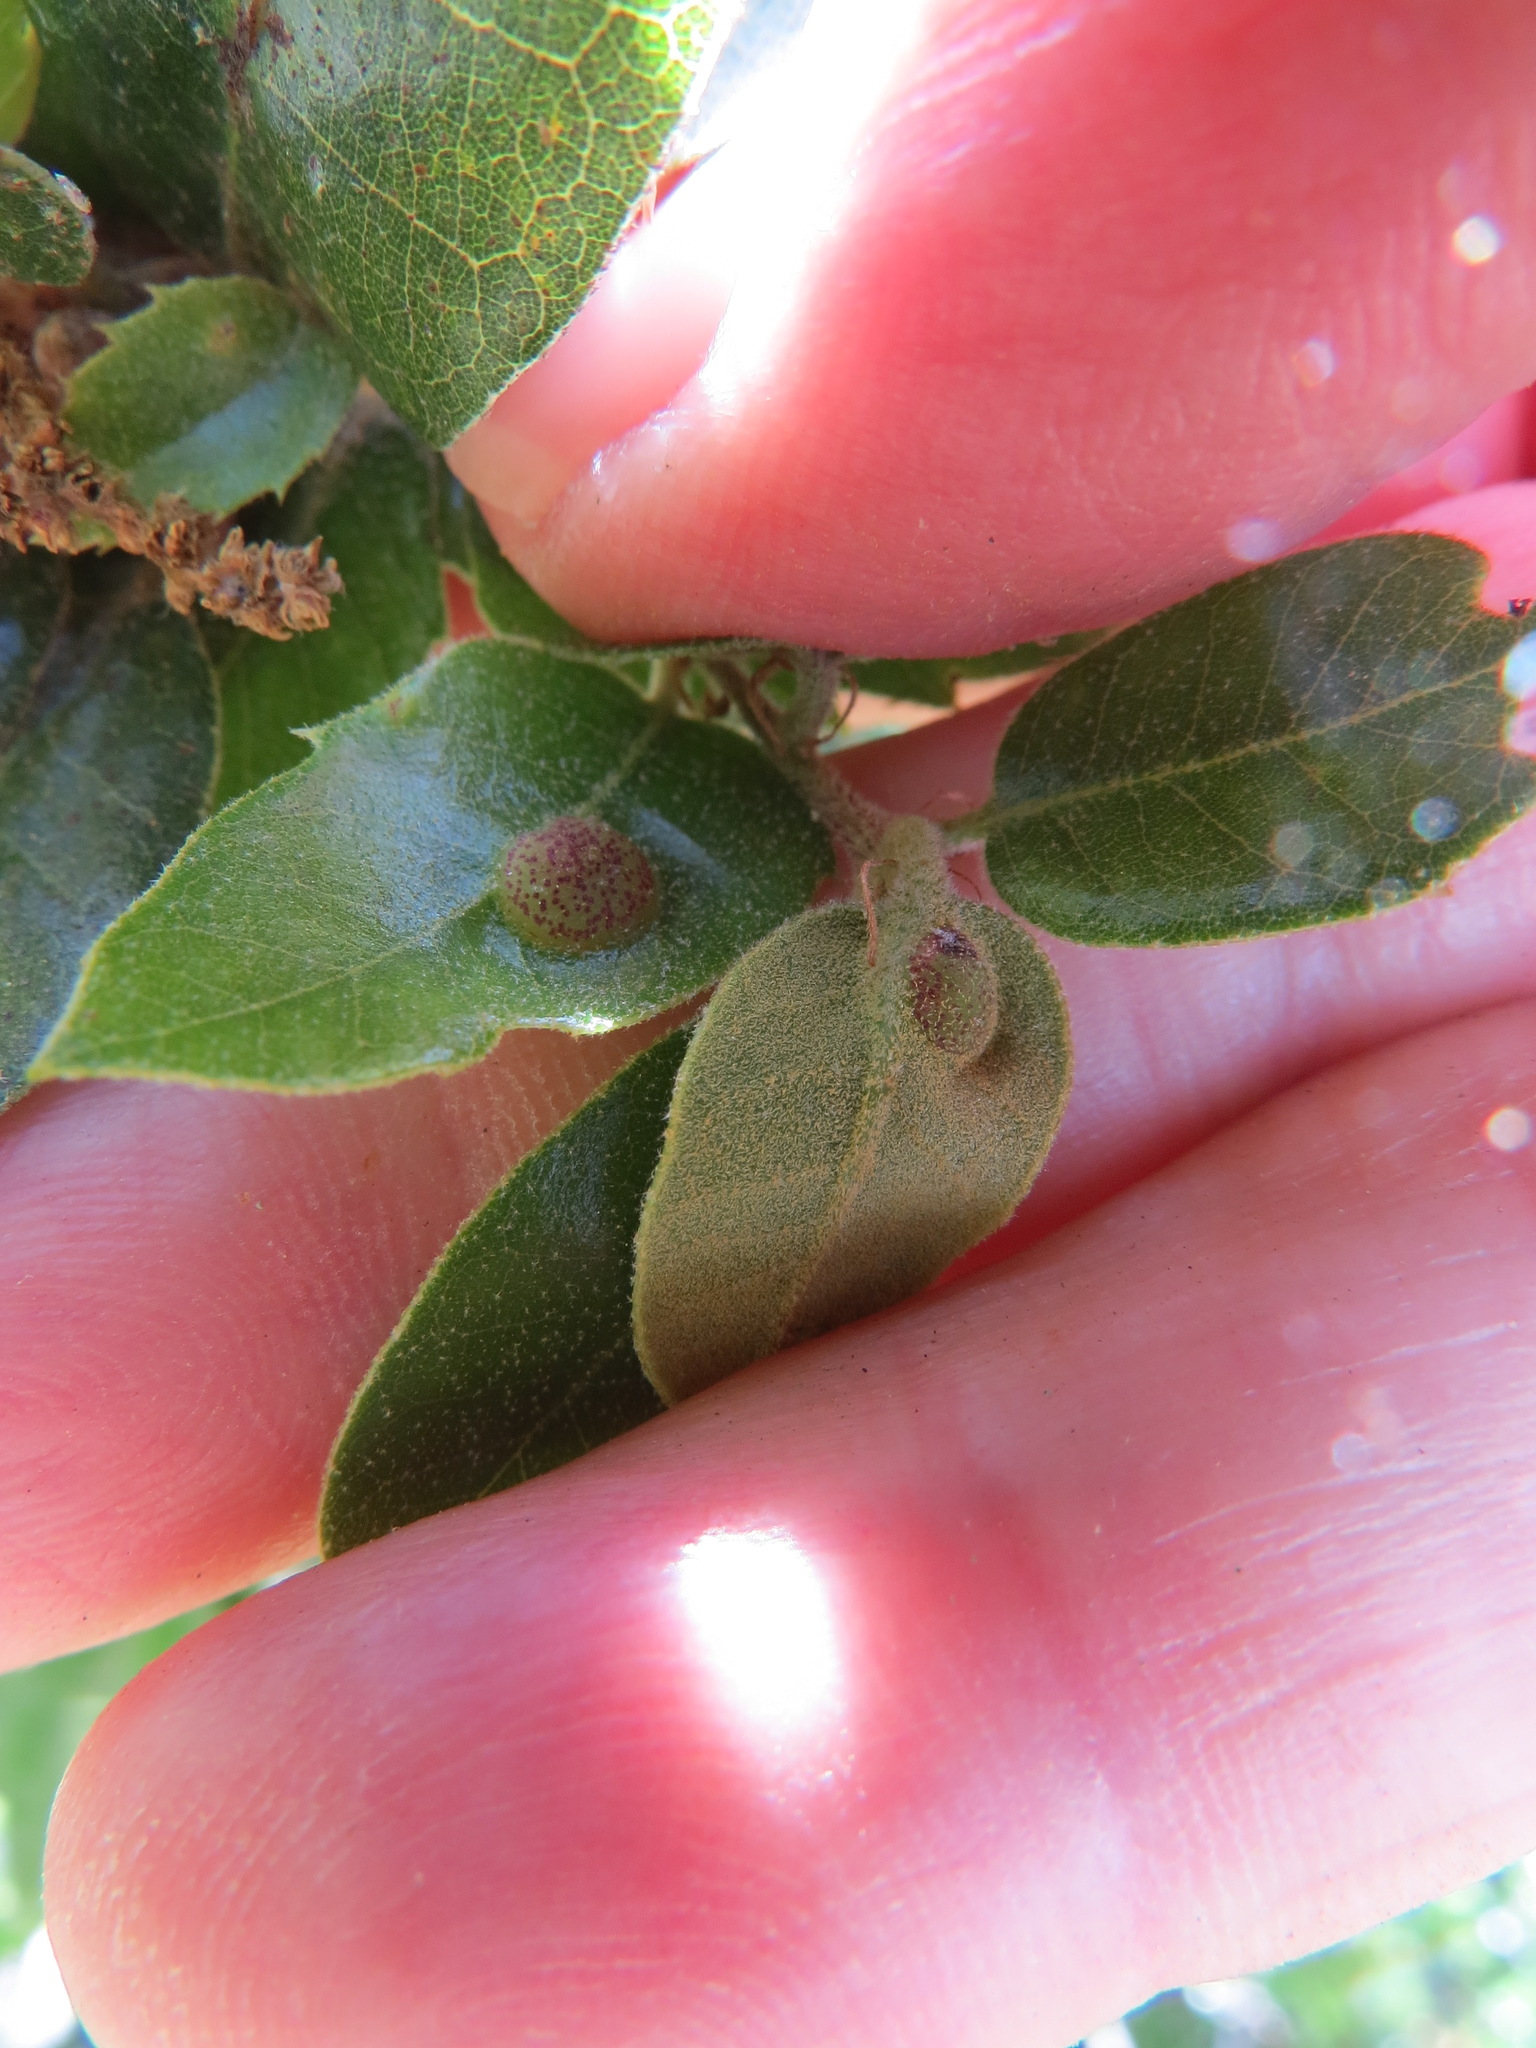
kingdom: Animalia
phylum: Arthropoda
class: Insecta
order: Hymenoptera
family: Cynipidae
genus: Heteroecus
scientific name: Heteroecus
